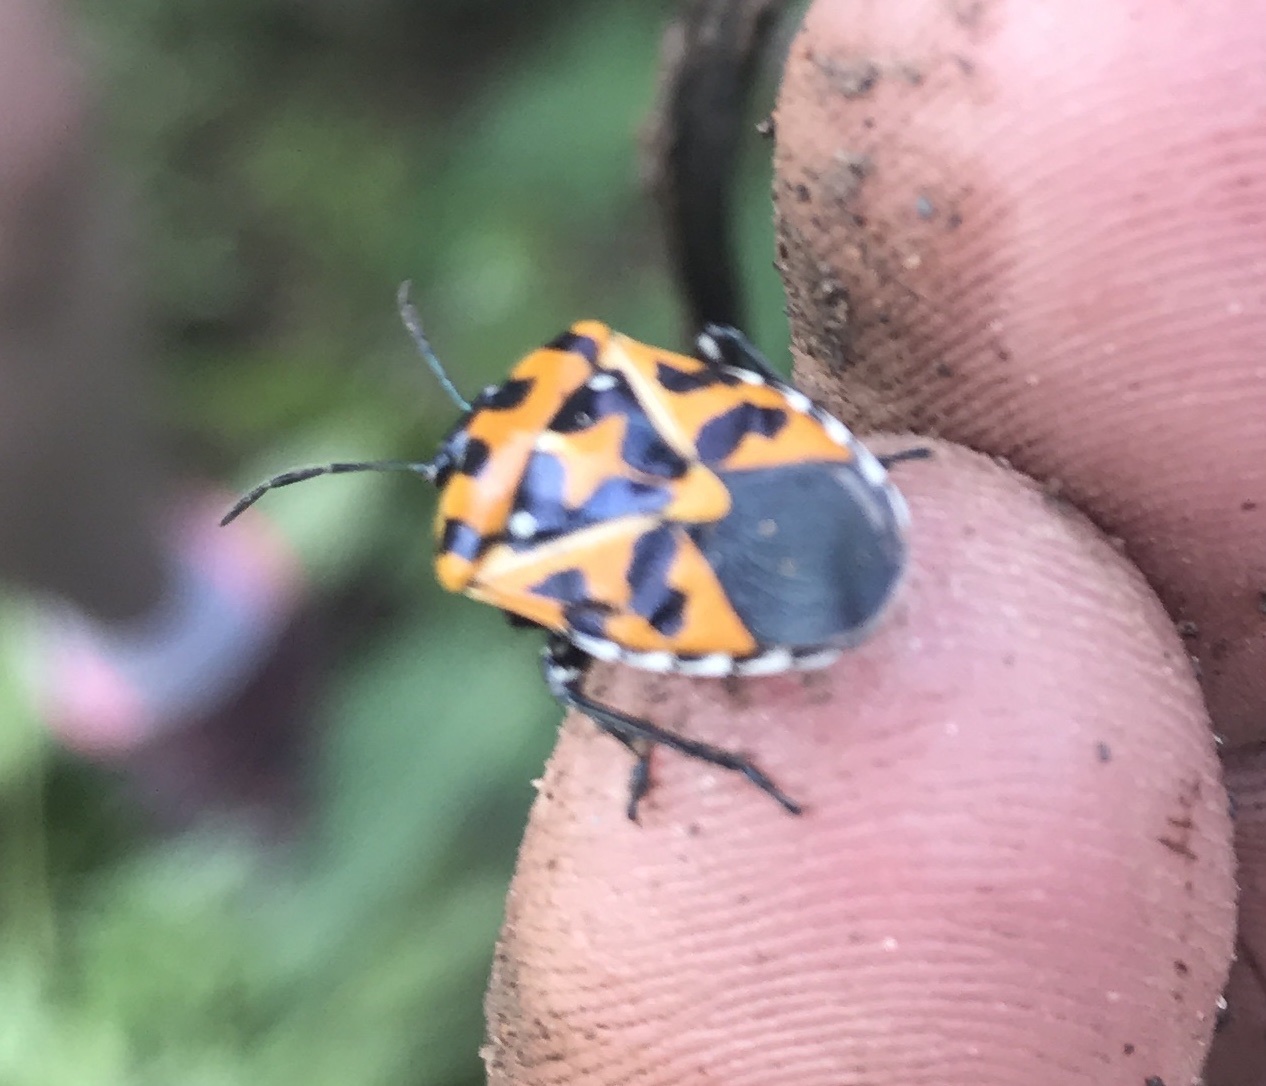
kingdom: Animalia
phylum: Arthropoda
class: Insecta
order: Hemiptera
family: Pentatomidae
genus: Murgantia
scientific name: Murgantia histrionica
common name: Harlequin bug
